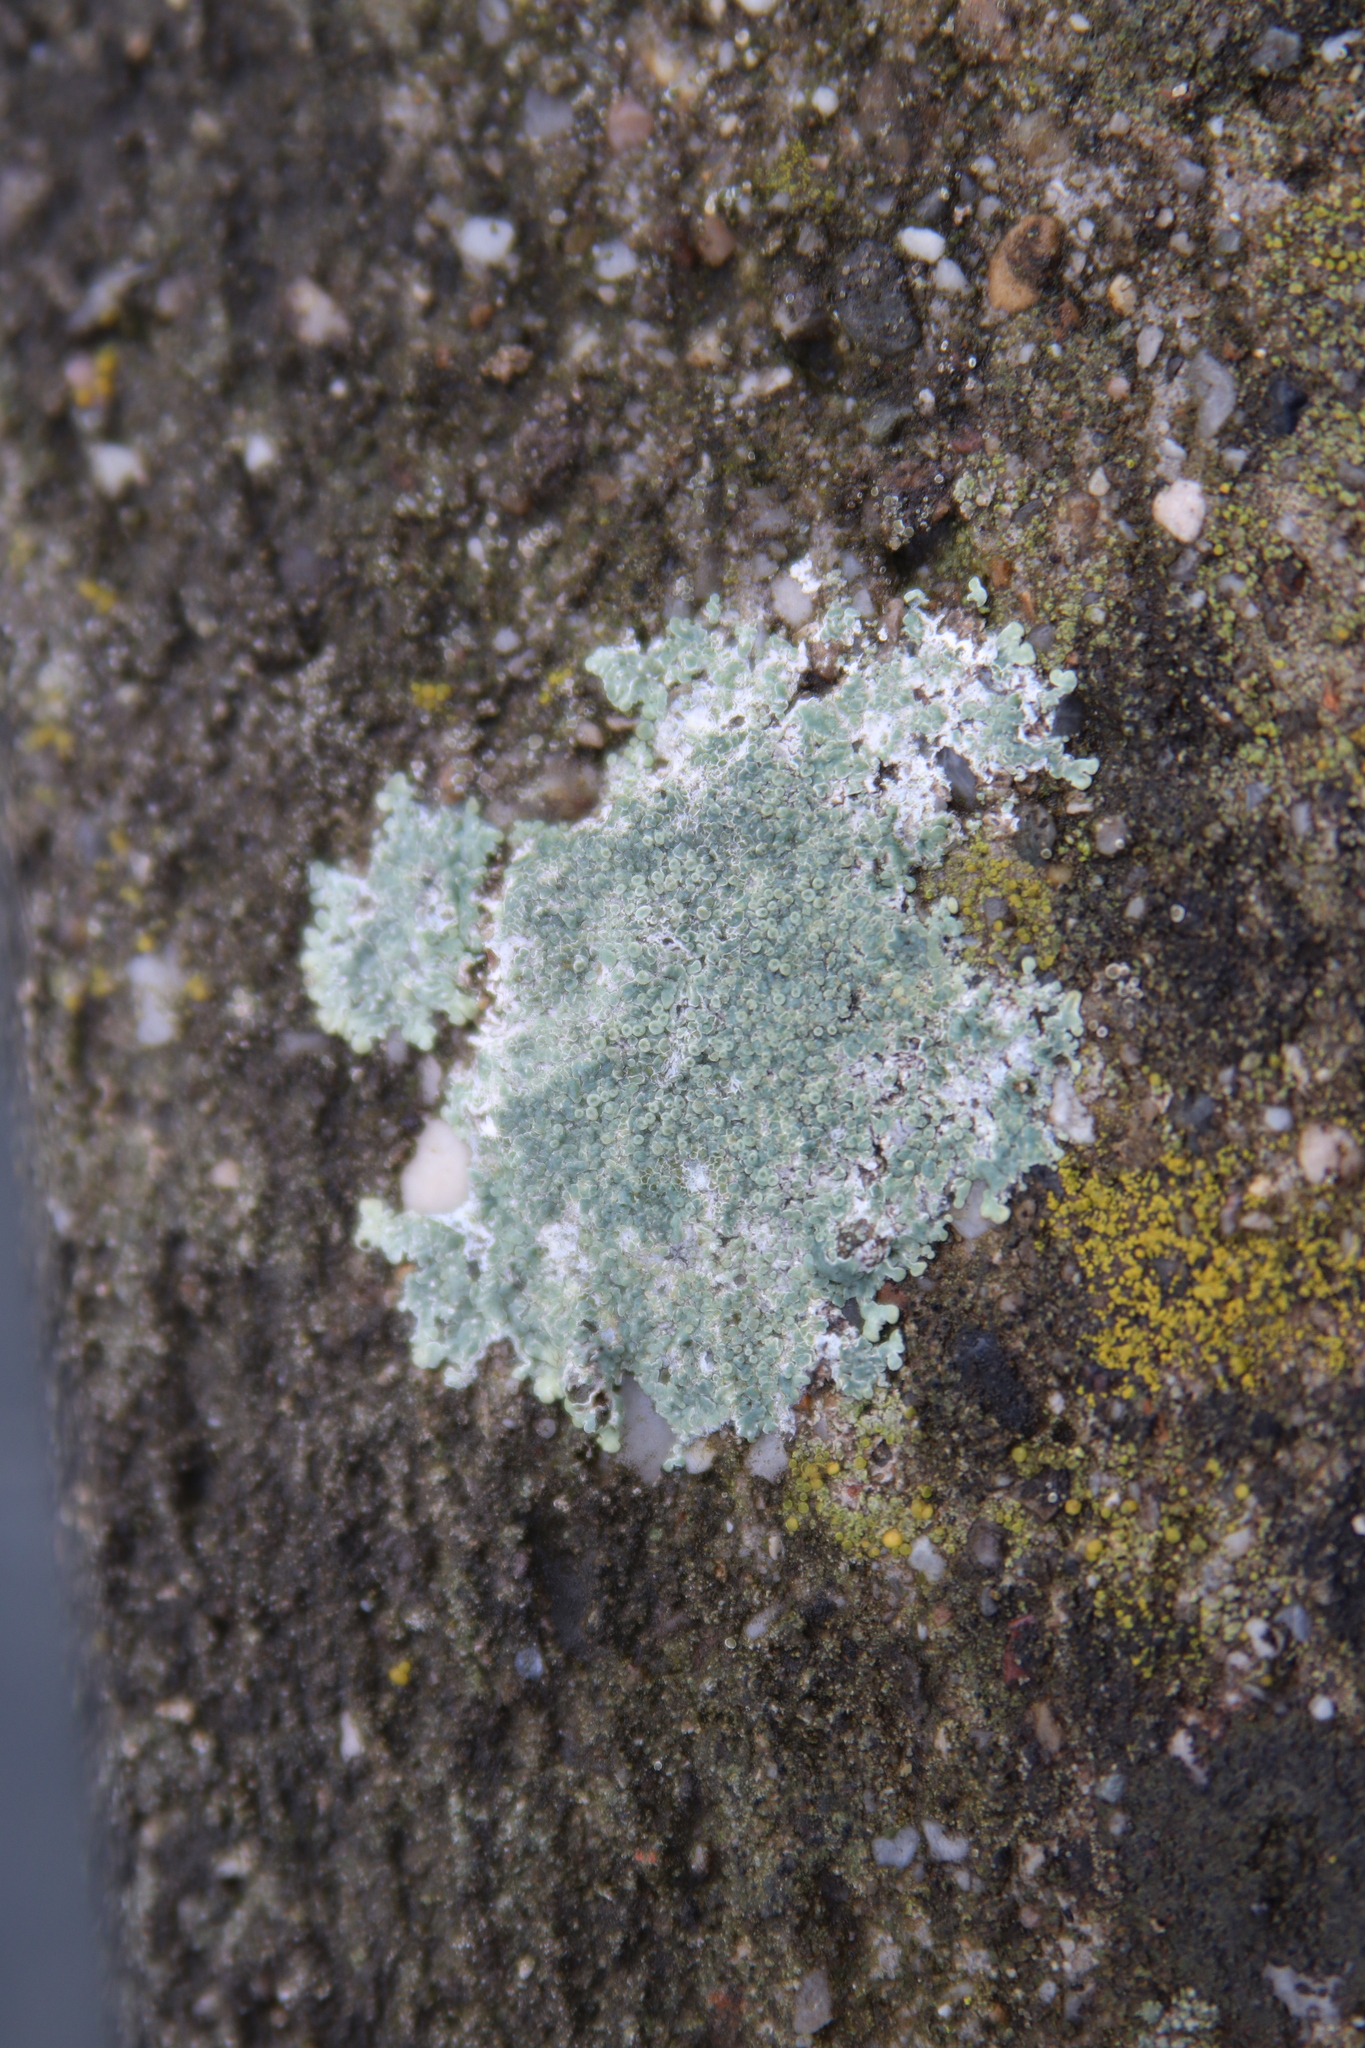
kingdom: Fungi
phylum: Ascomycota
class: Lecanoromycetes
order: Lecanorales
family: Lecanoraceae
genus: Protoparmeliopsis
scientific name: Protoparmeliopsis muralis
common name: Stonewall rim lichen
